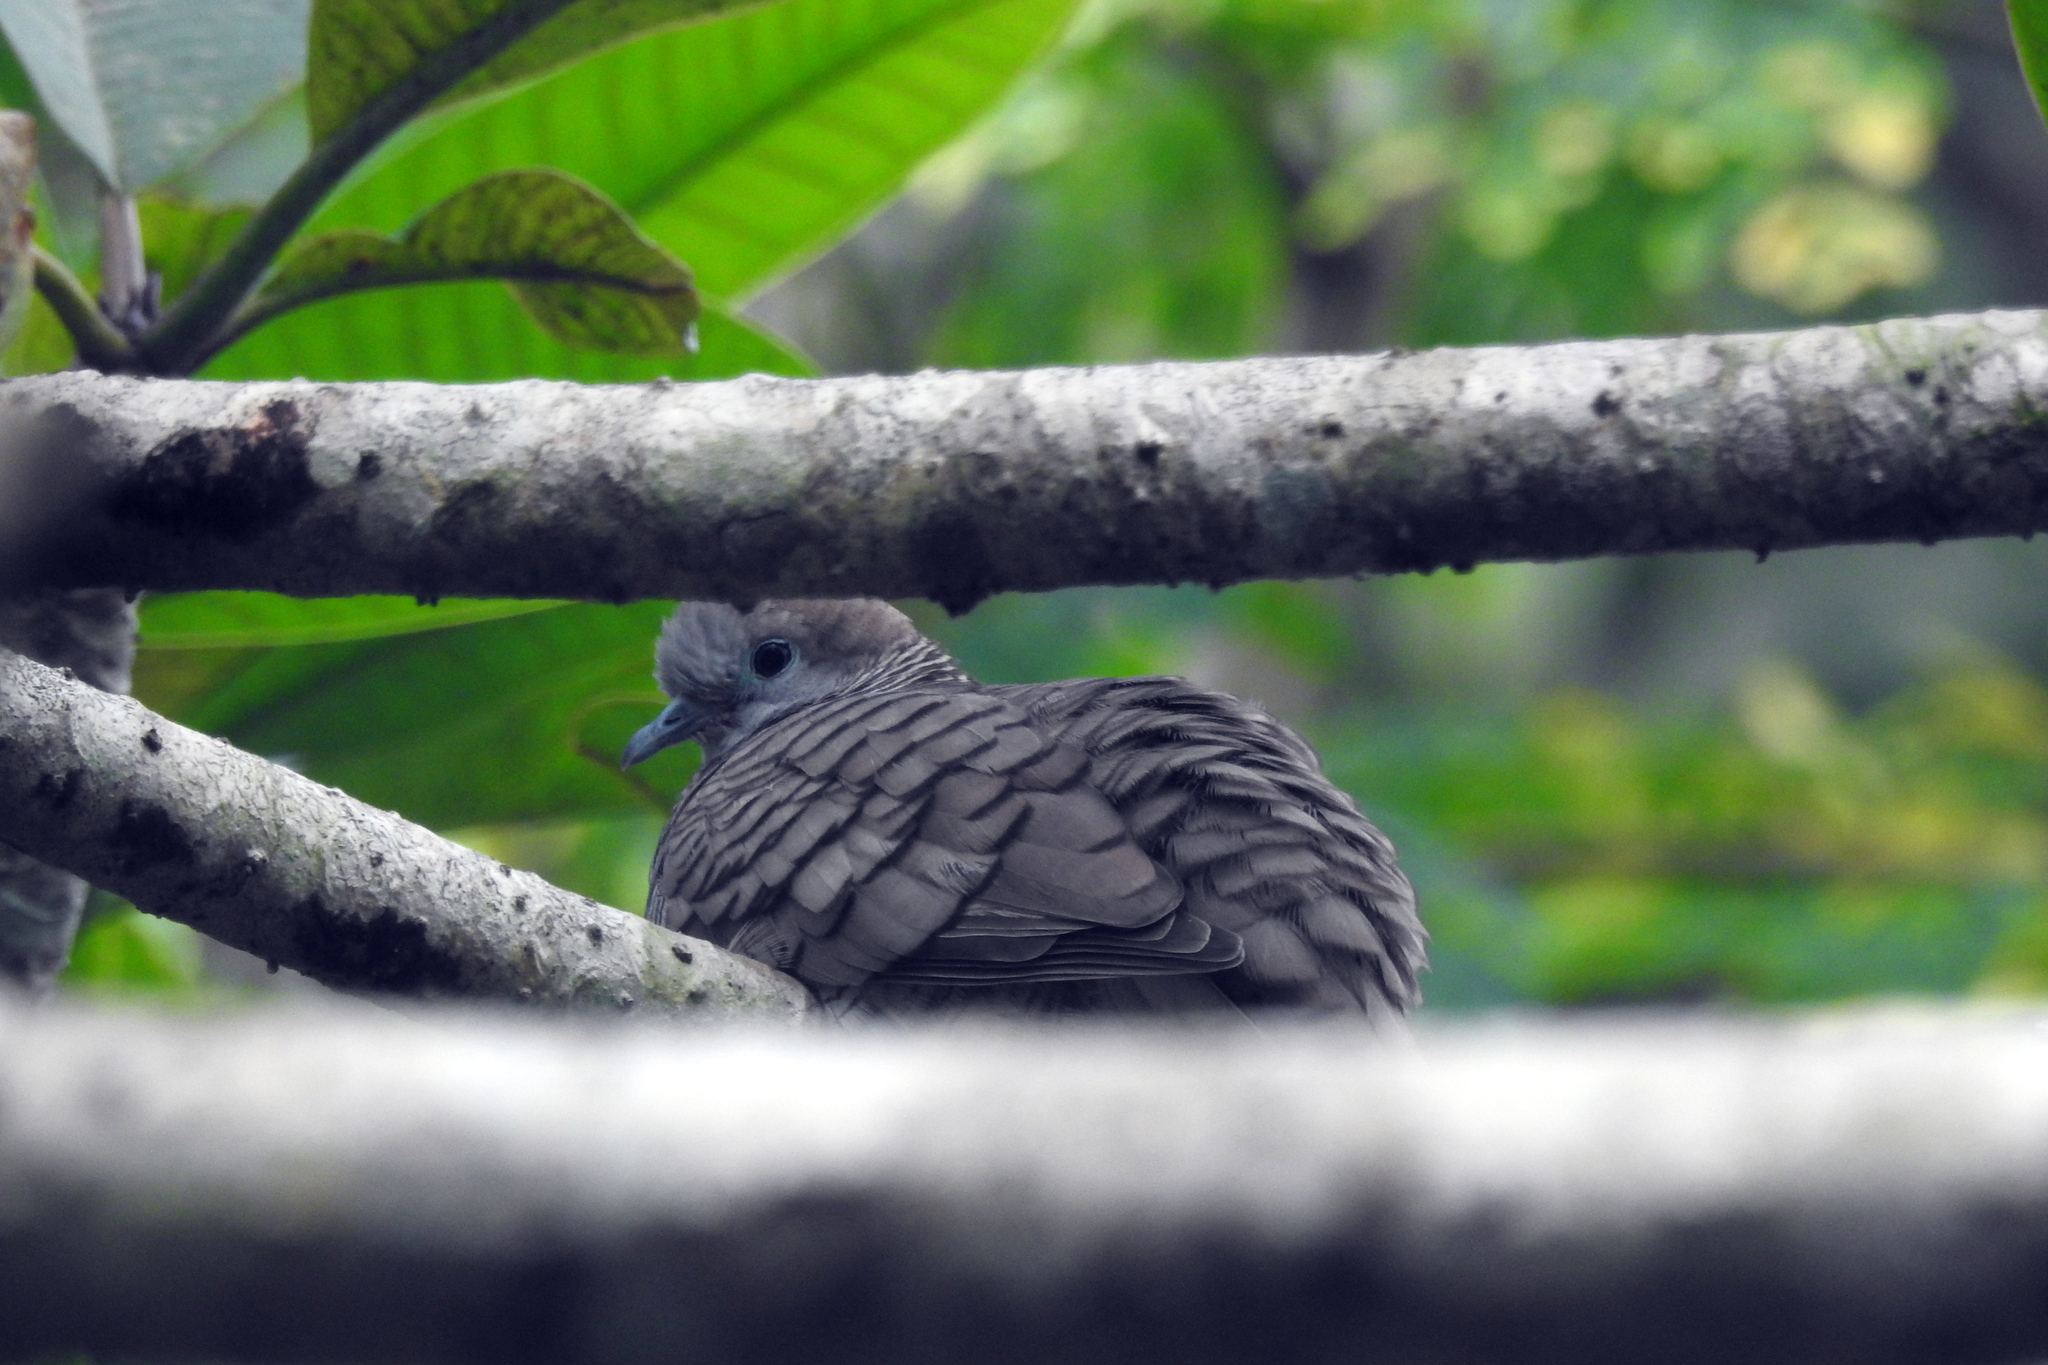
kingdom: Animalia
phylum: Chordata
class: Aves
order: Columbiformes
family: Columbidae
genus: Geopelia
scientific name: Geopelia striata
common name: Zebra dove
